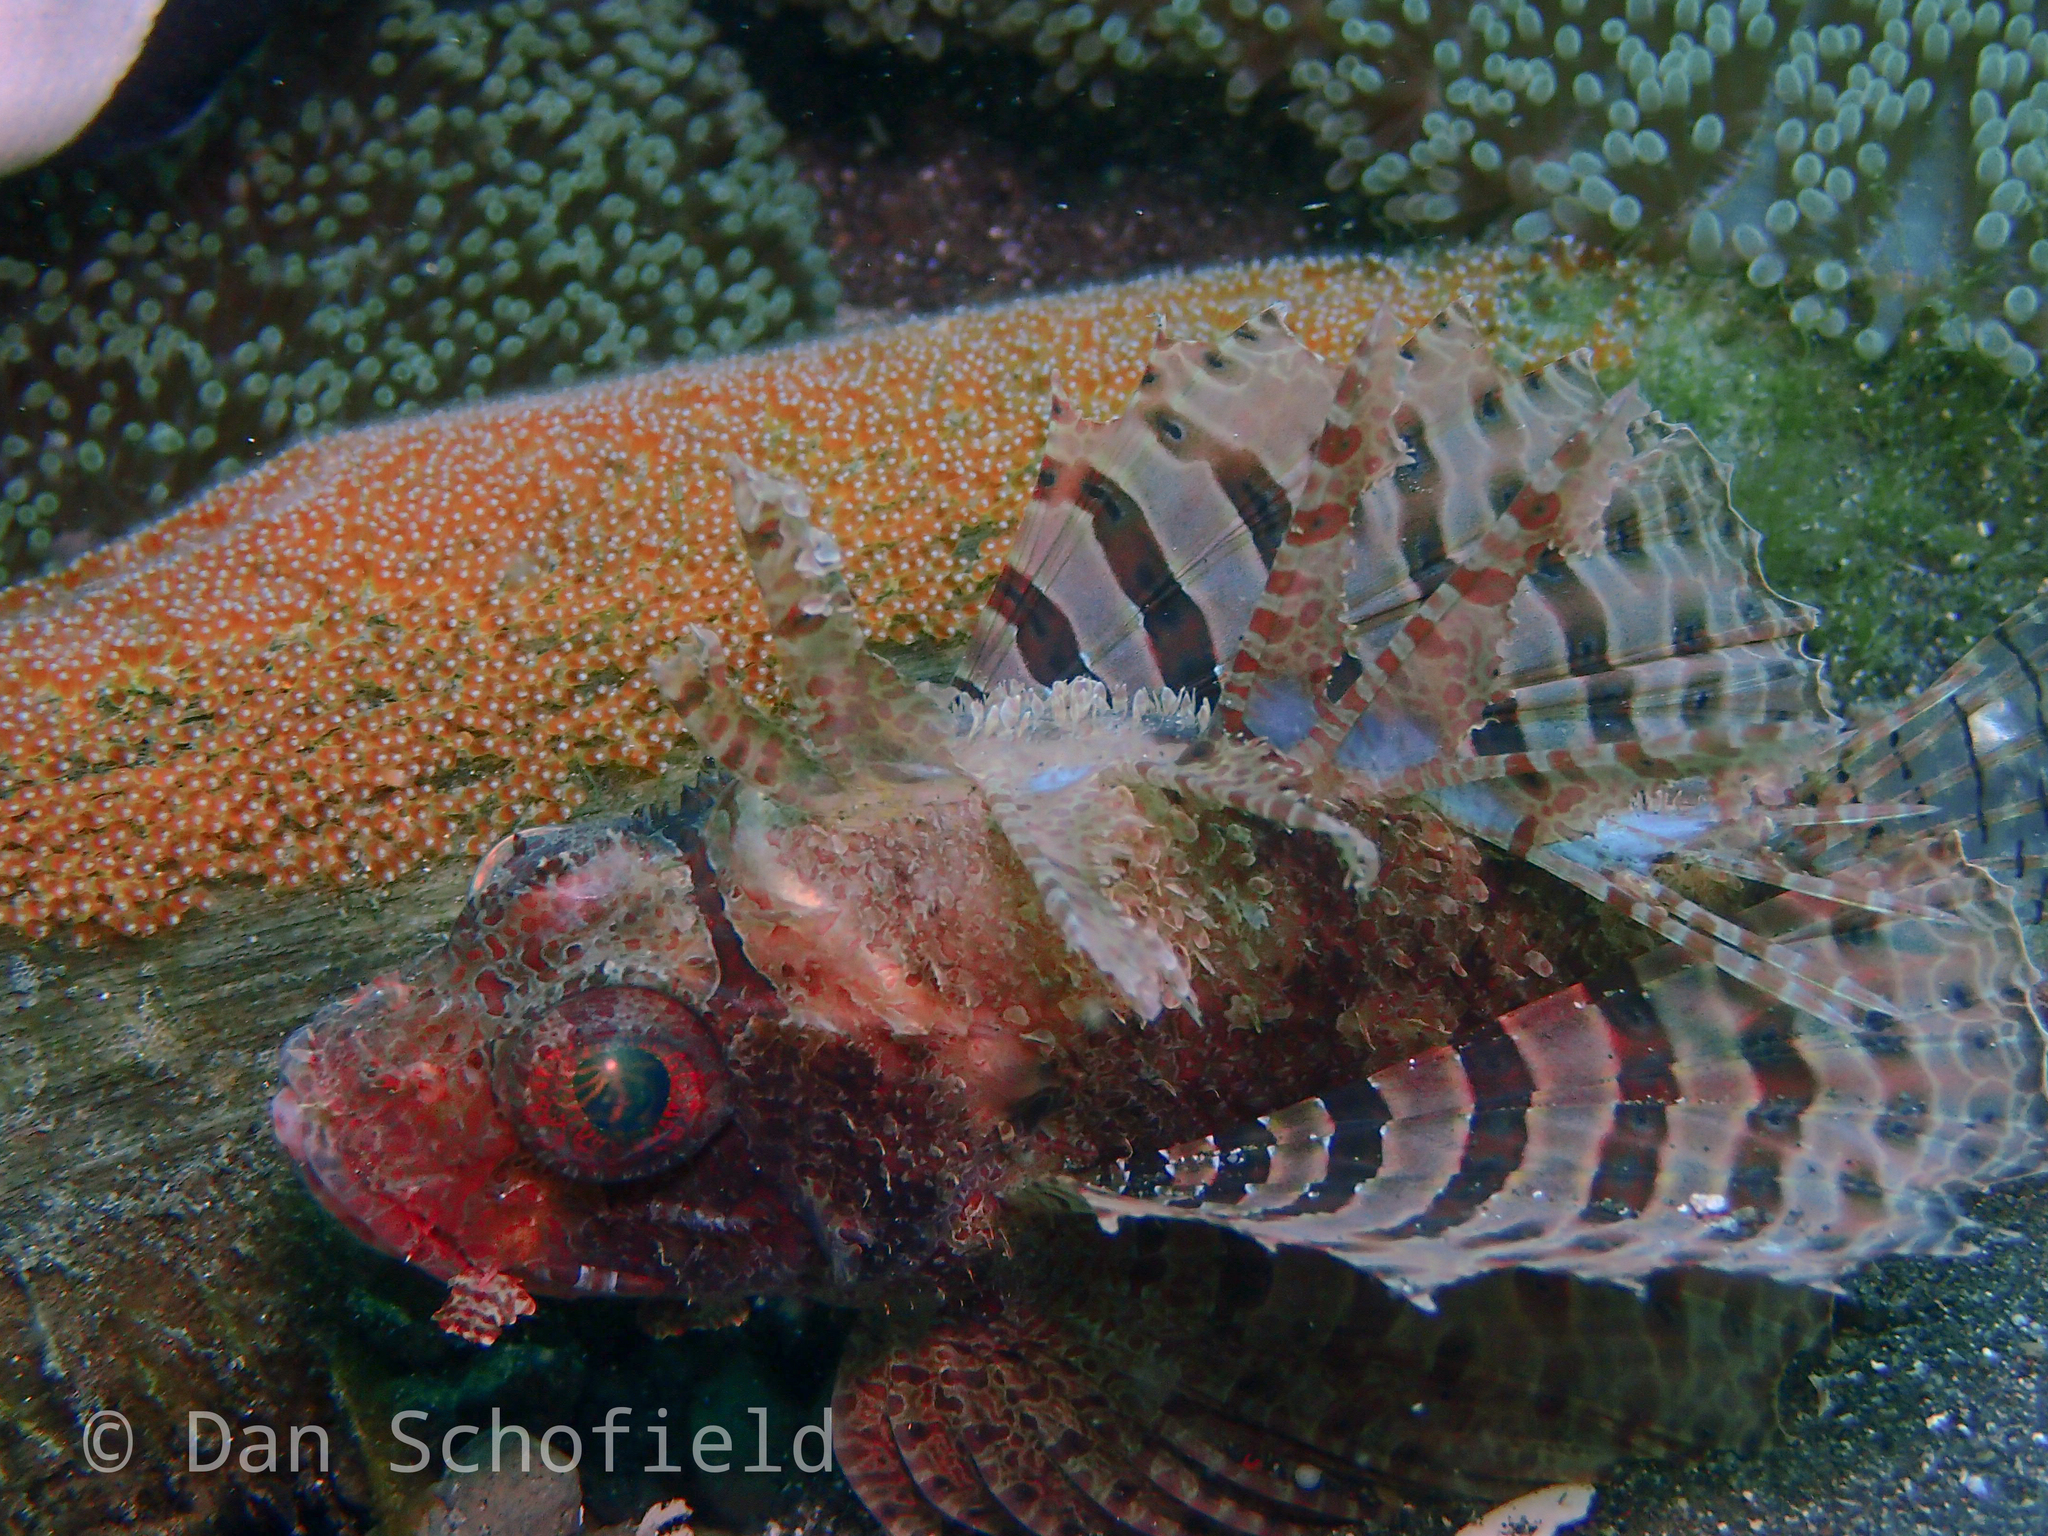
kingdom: Animalia
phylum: Chordata
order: Scorpaeniformes
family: Scorpaenidae
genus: Dendrochirus
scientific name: Dendrochirus brachypterus
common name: Shortfin turkeyfish
